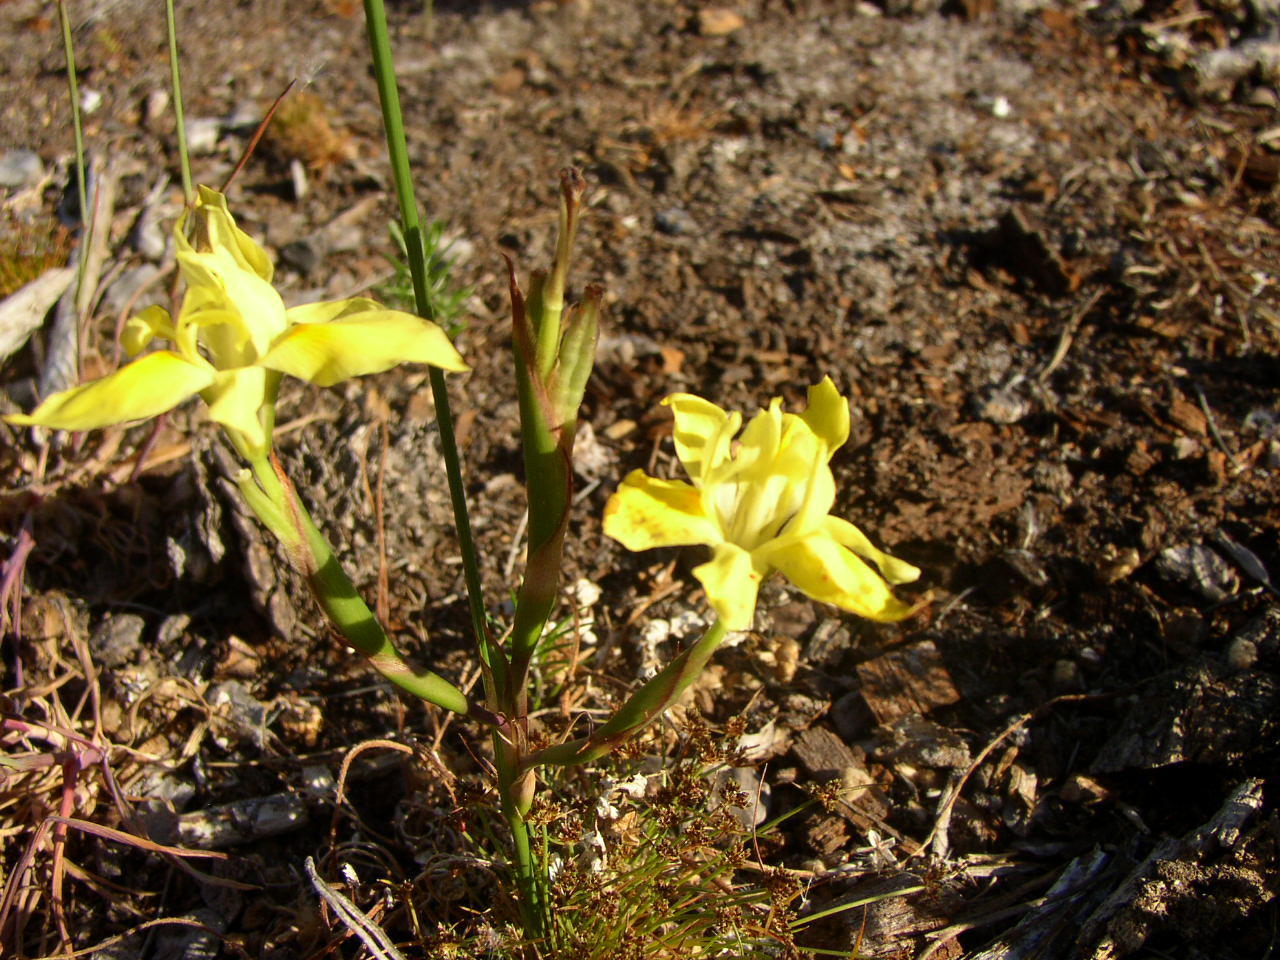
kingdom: Plantae
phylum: Tracheophyta
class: Liliopsida
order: Asparagales
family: Iridaceae
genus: Moraea
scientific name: Moraea fugax
